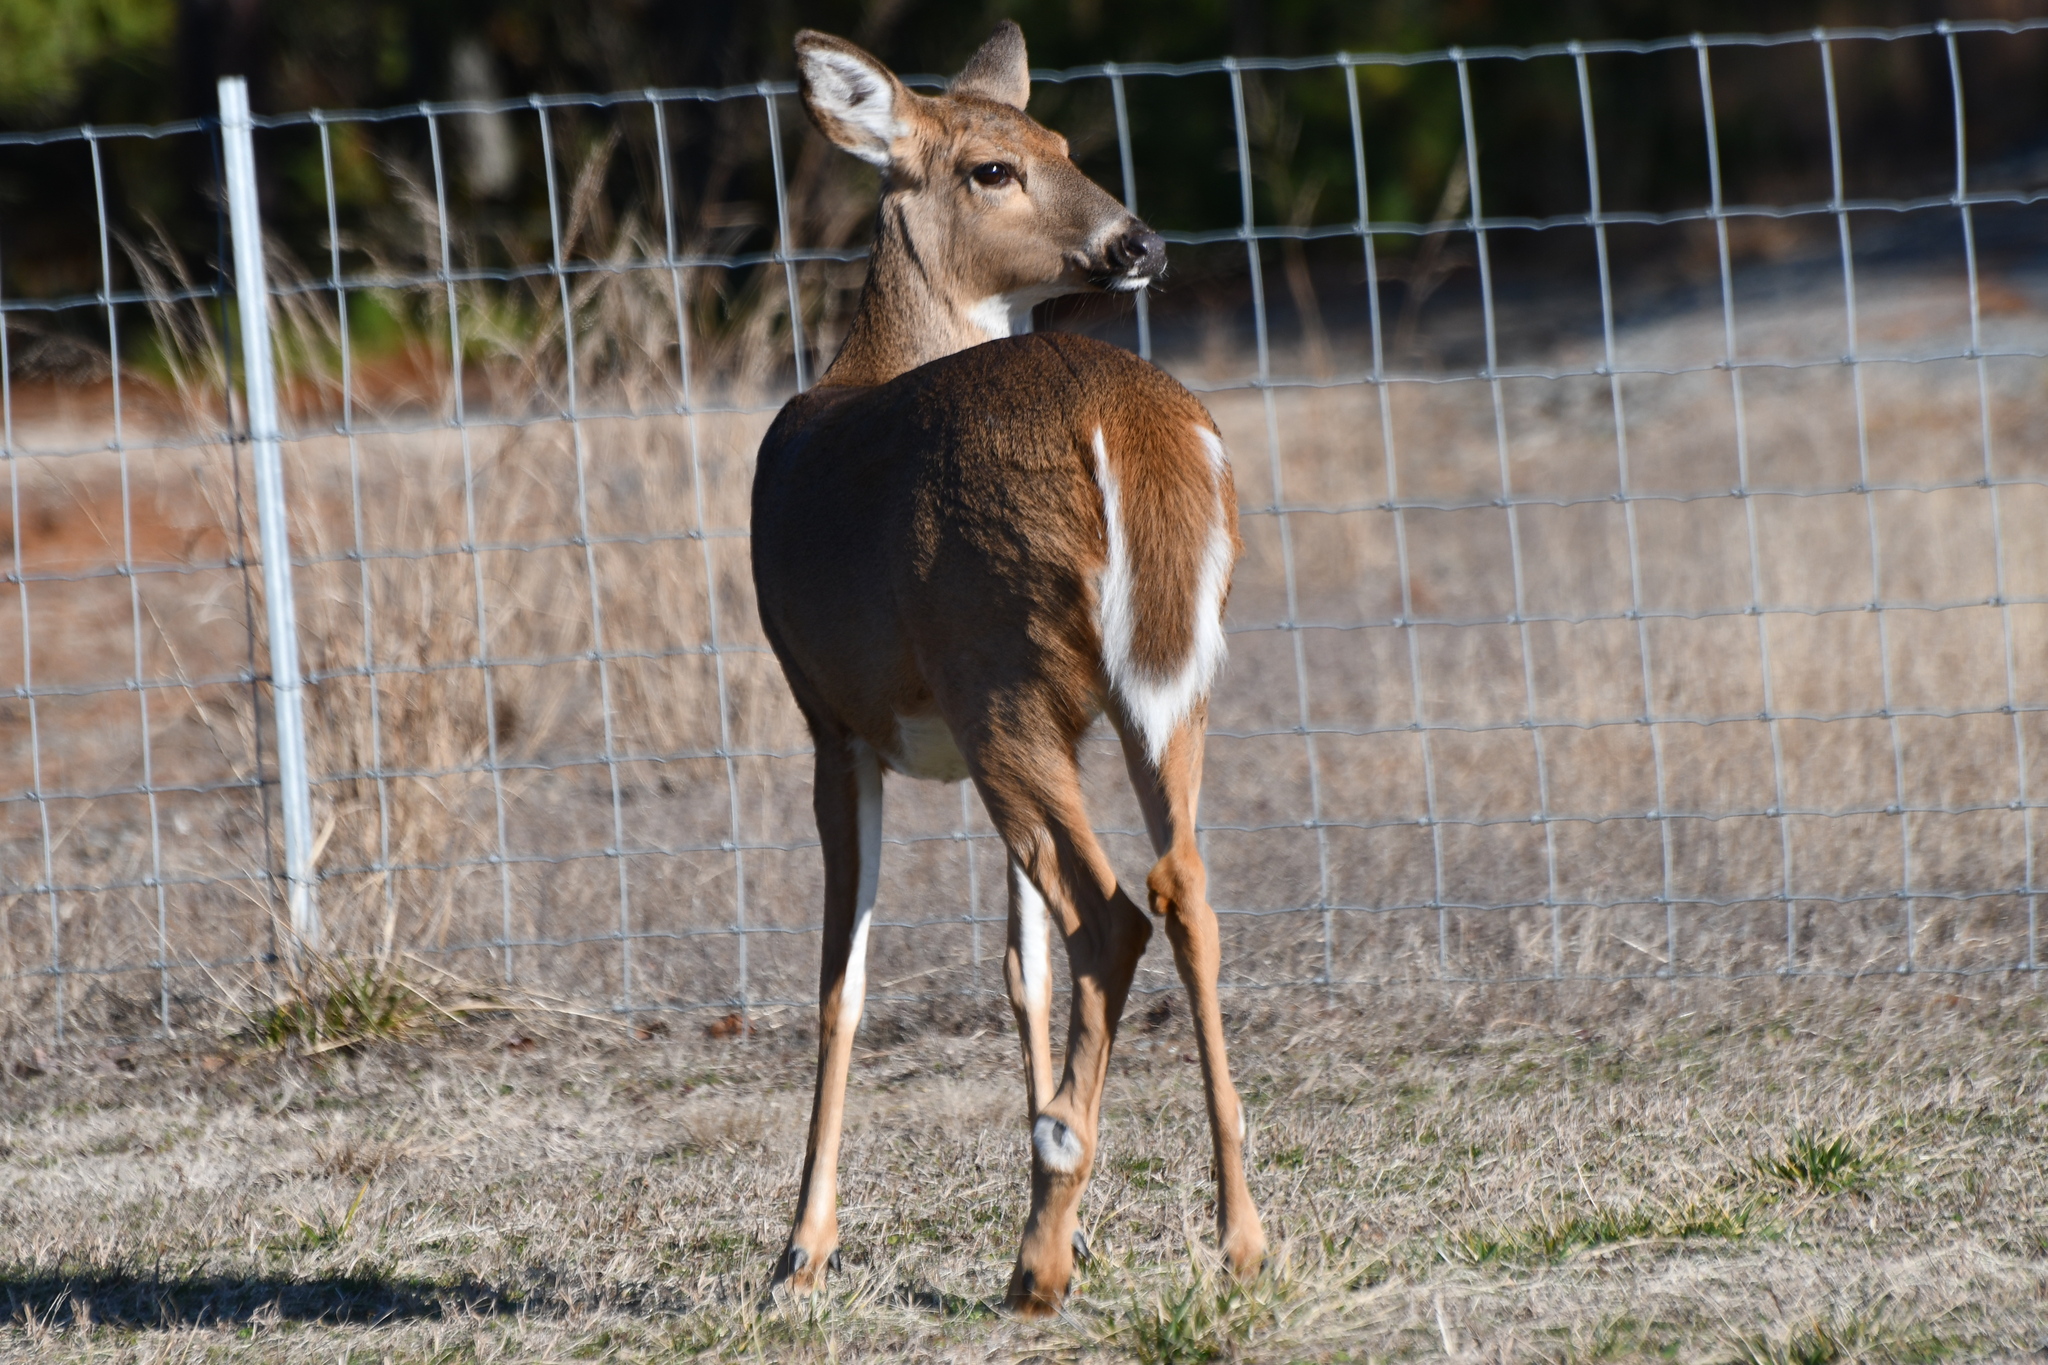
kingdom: Animalia
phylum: Chordata
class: Mammalia
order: Artiodactyla
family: Cervidae
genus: Odocoileus
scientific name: Odocoileus virginianus
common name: White-tailed deer
